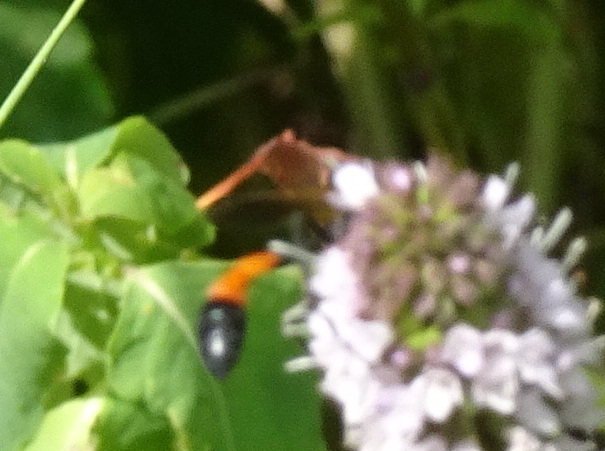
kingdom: Animalia
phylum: Arthropoda
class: Insecta
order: Hymenoptera
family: Sphecidae
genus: Ammophila
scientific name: Ammophila pictipennis
